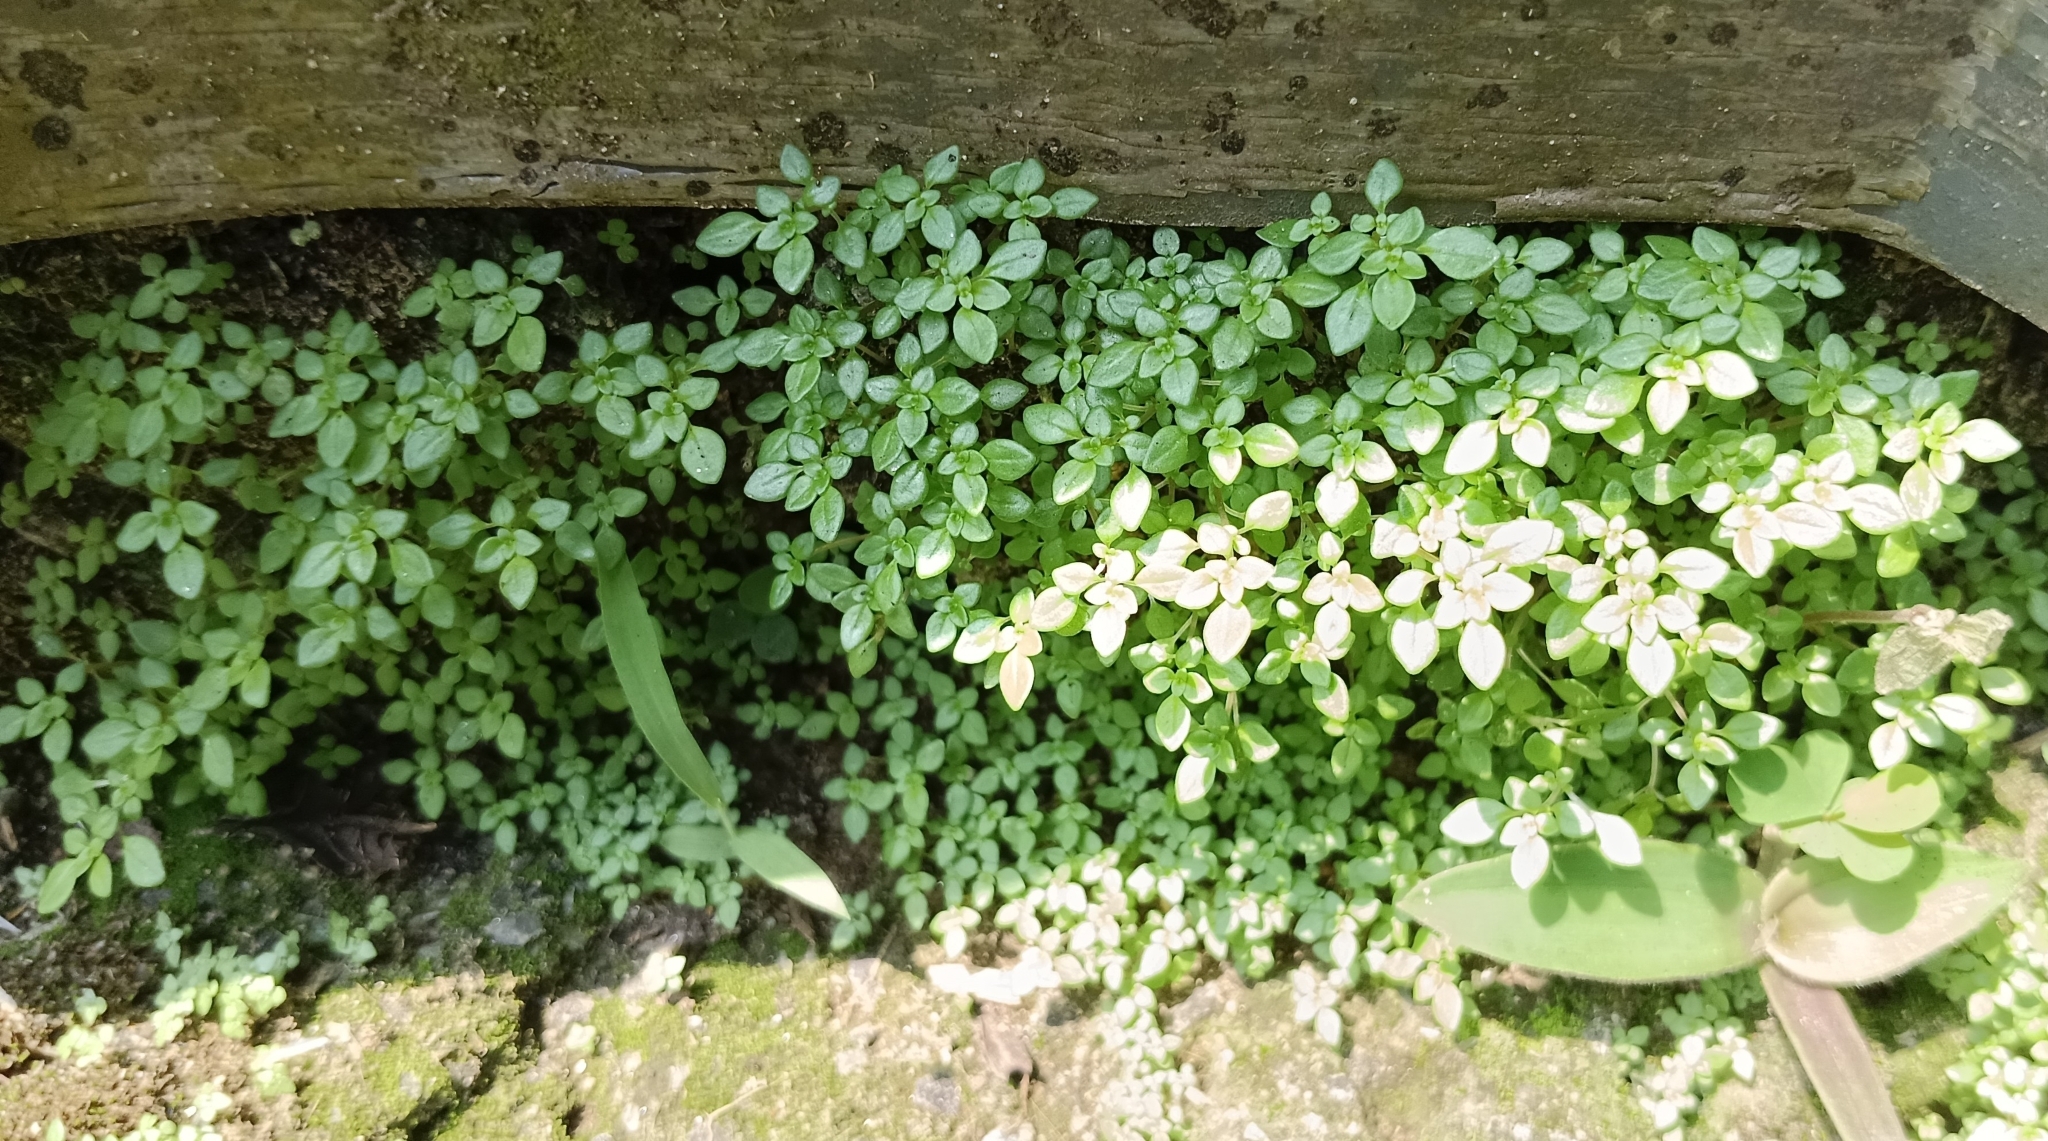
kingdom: Plantae
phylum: Tracheophyta
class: Magnoliopsida
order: Rosales
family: Urticaceae
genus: Pilea
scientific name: Pilea microphylla
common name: Artillery-plant
